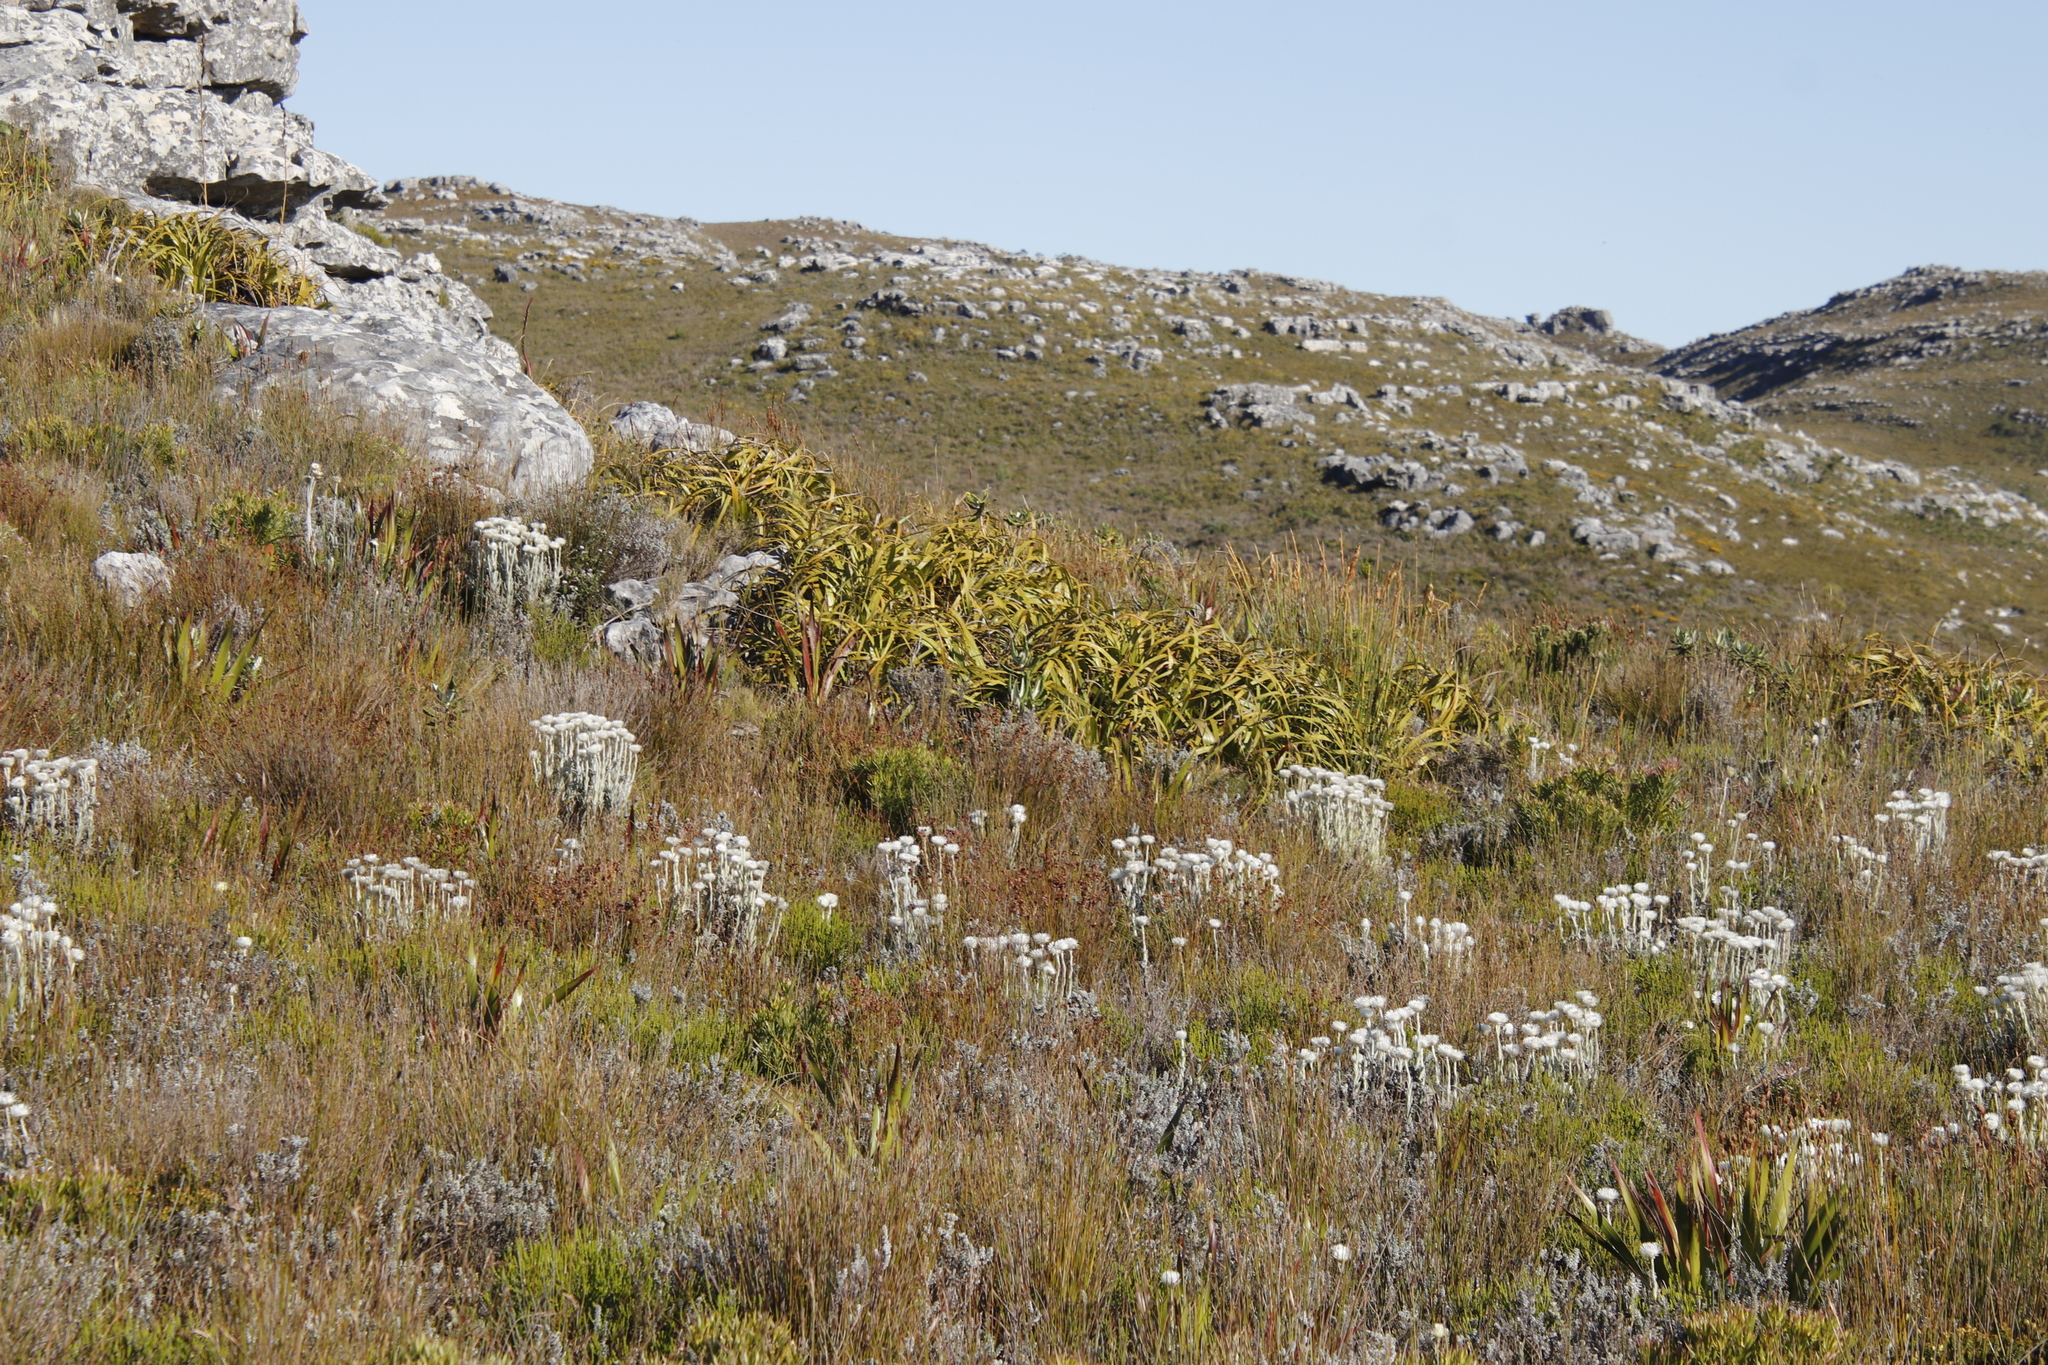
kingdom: Plantae
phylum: Tracheophyta
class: Liliopsida
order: Poales
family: Cyperaceae
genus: Tetraria
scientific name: Tetraria thermalis
